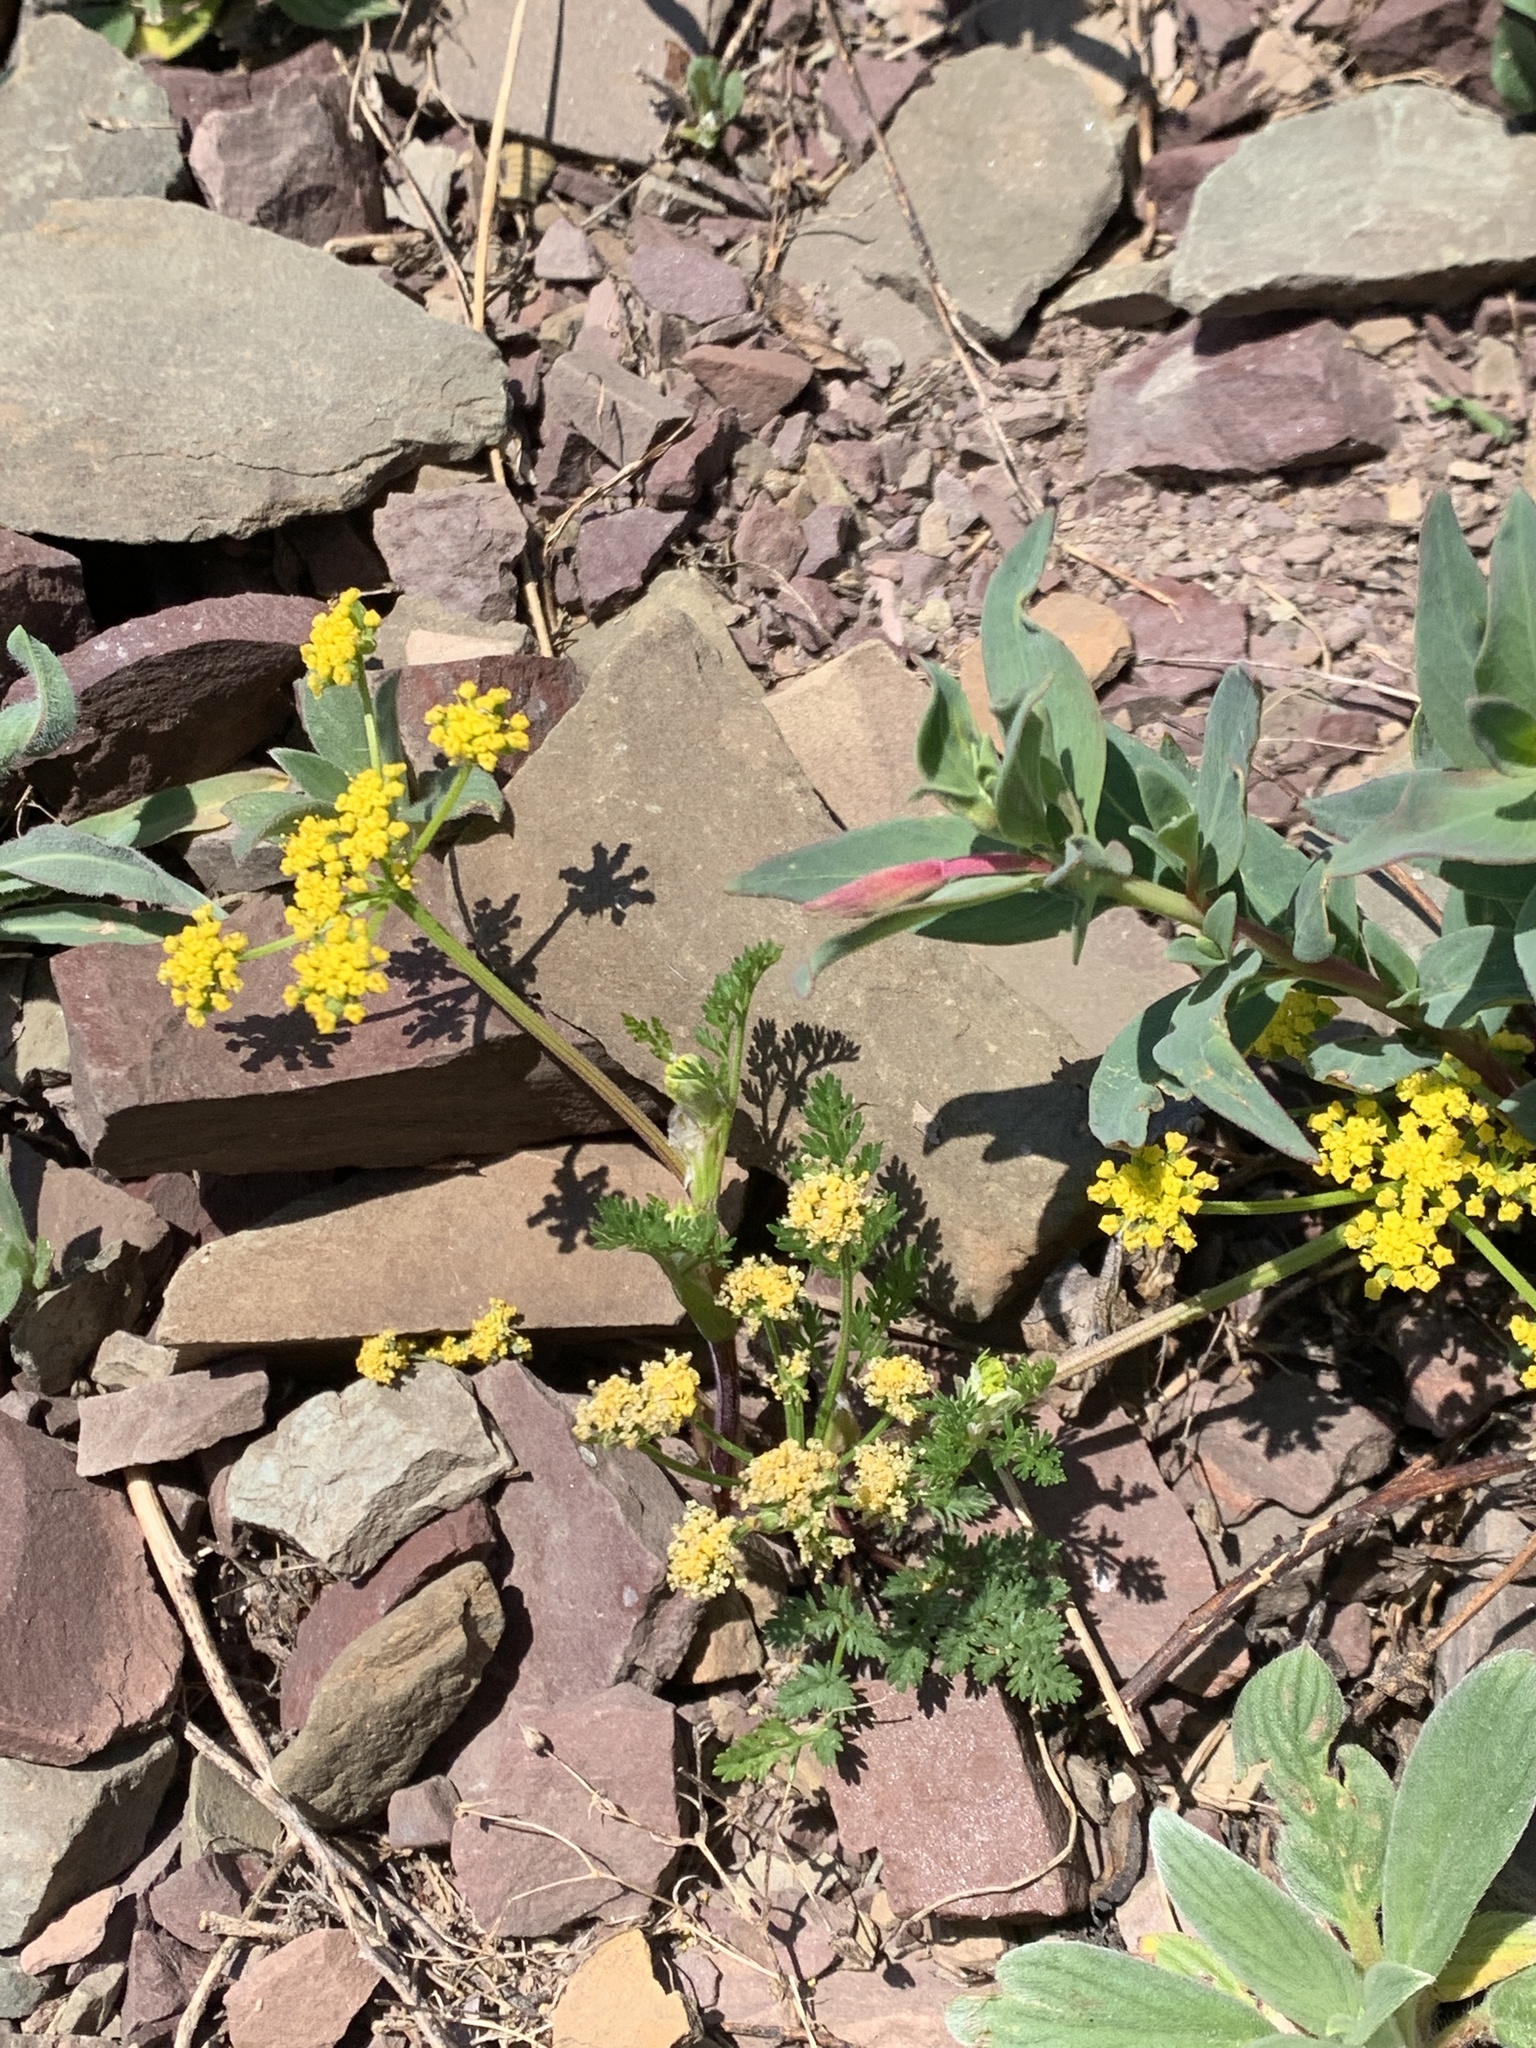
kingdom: Plantae
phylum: Tracheophyta
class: Magnoliopsida
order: Apiales
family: Apiaceae
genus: Lomatium
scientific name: Lomatium sandbergii
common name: Sandberg's biscuitroot
